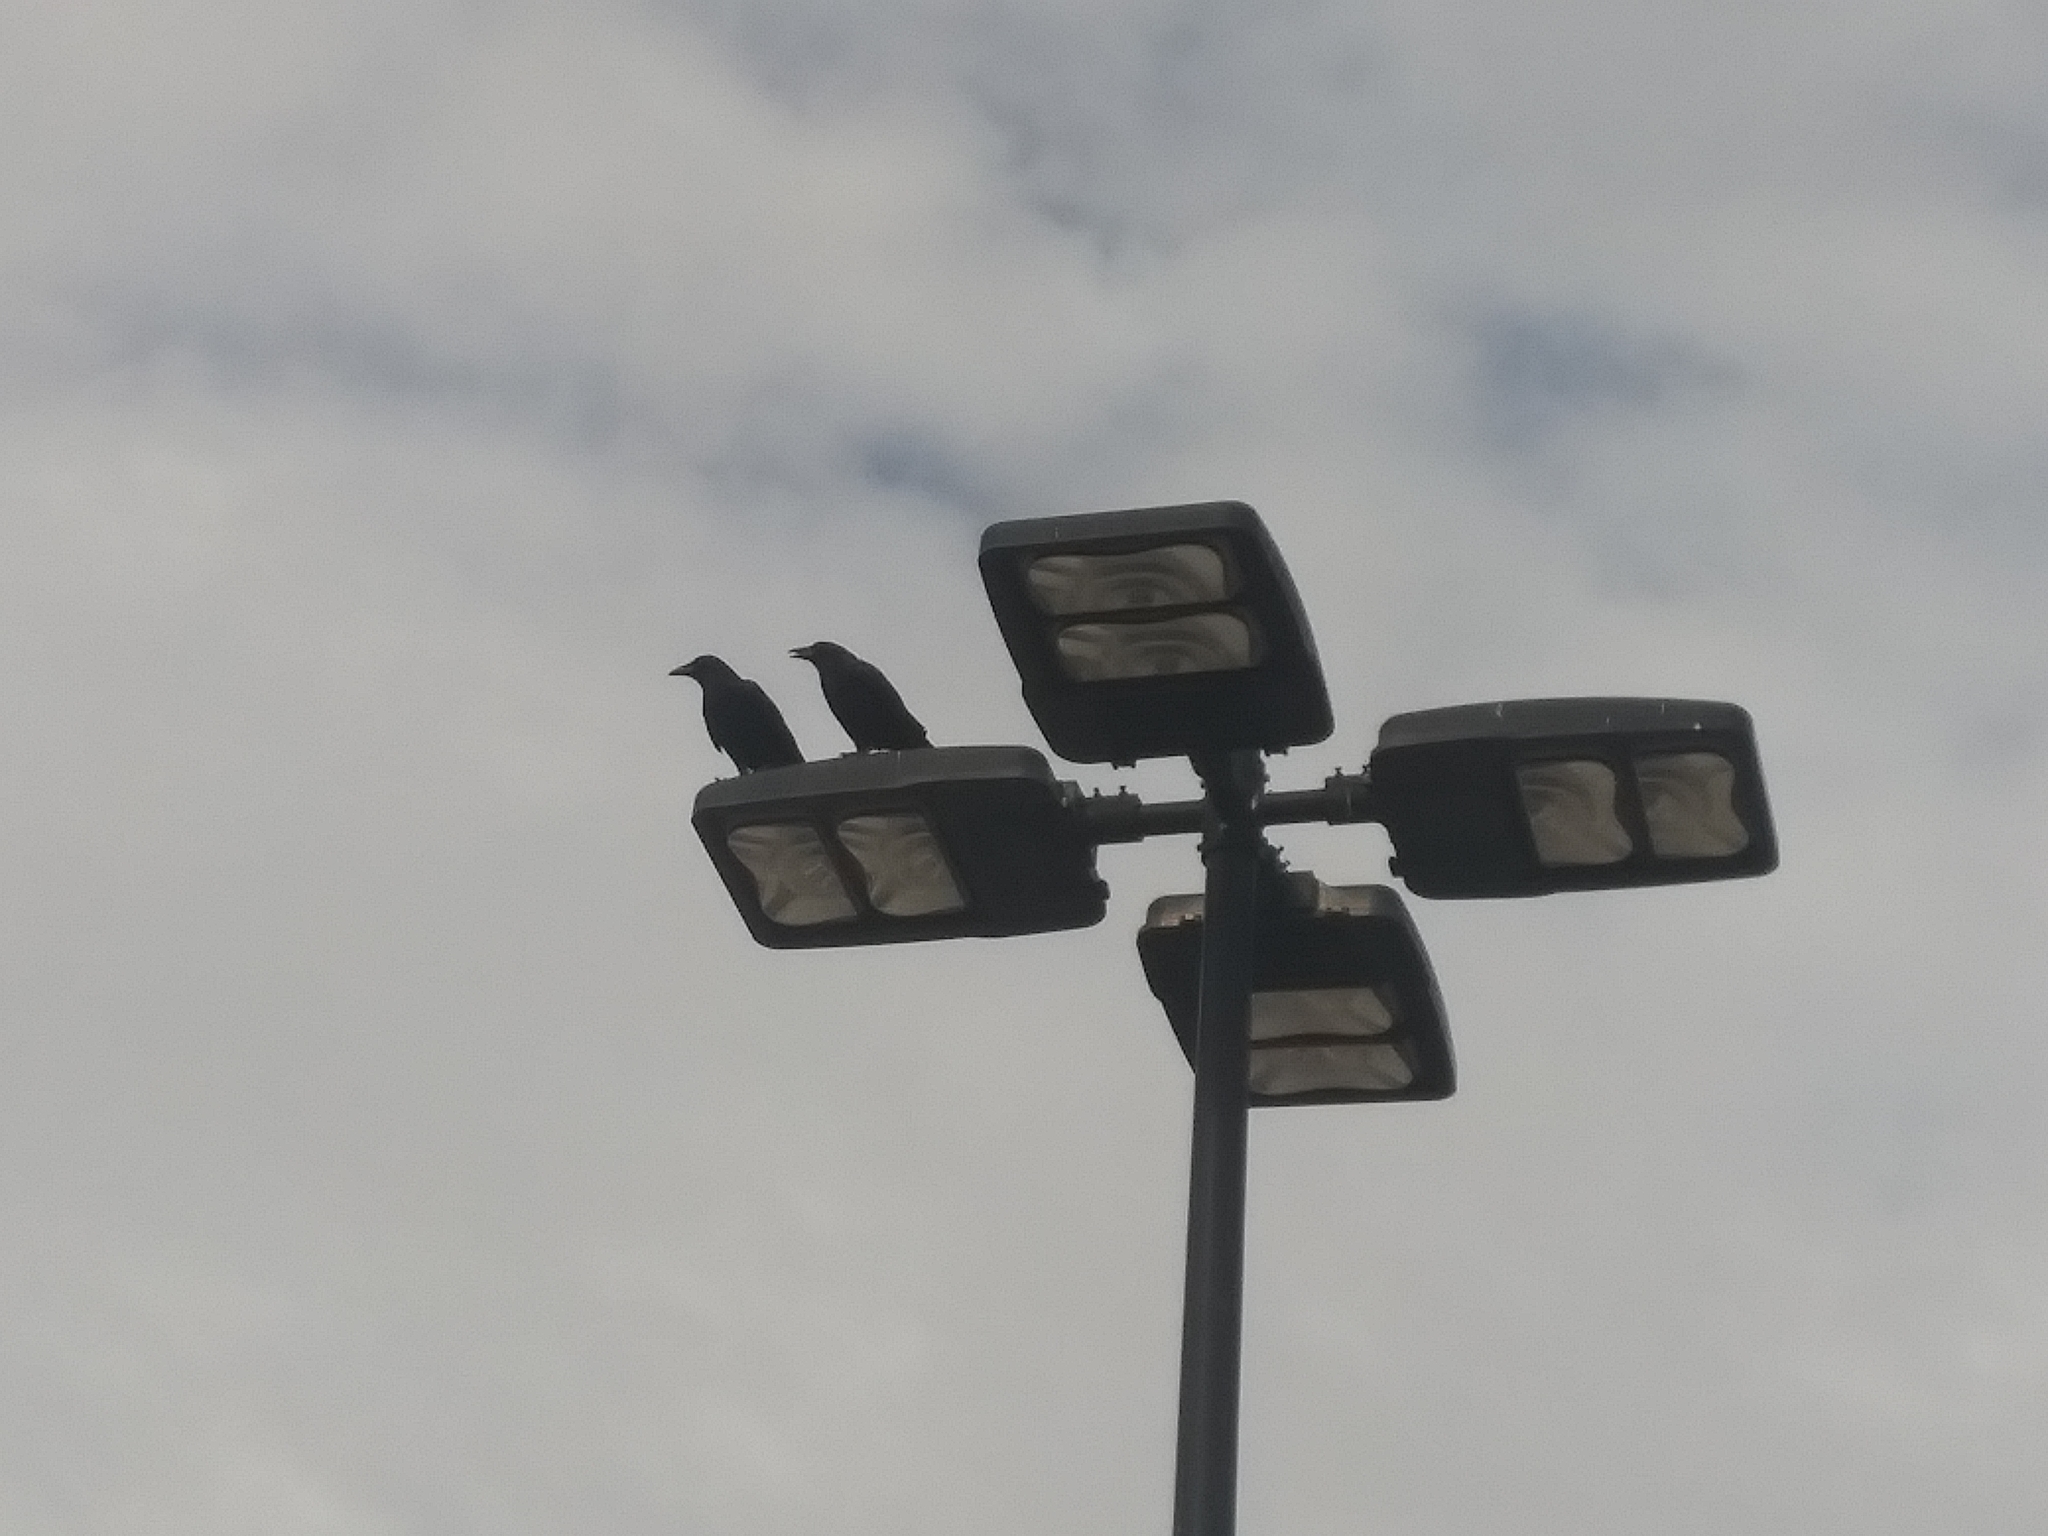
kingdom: Animalia
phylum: Chordata
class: Aves
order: Passeriformes
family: Corvidae
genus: Corvus
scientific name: Corvus brachyrhynchos
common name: American crow
